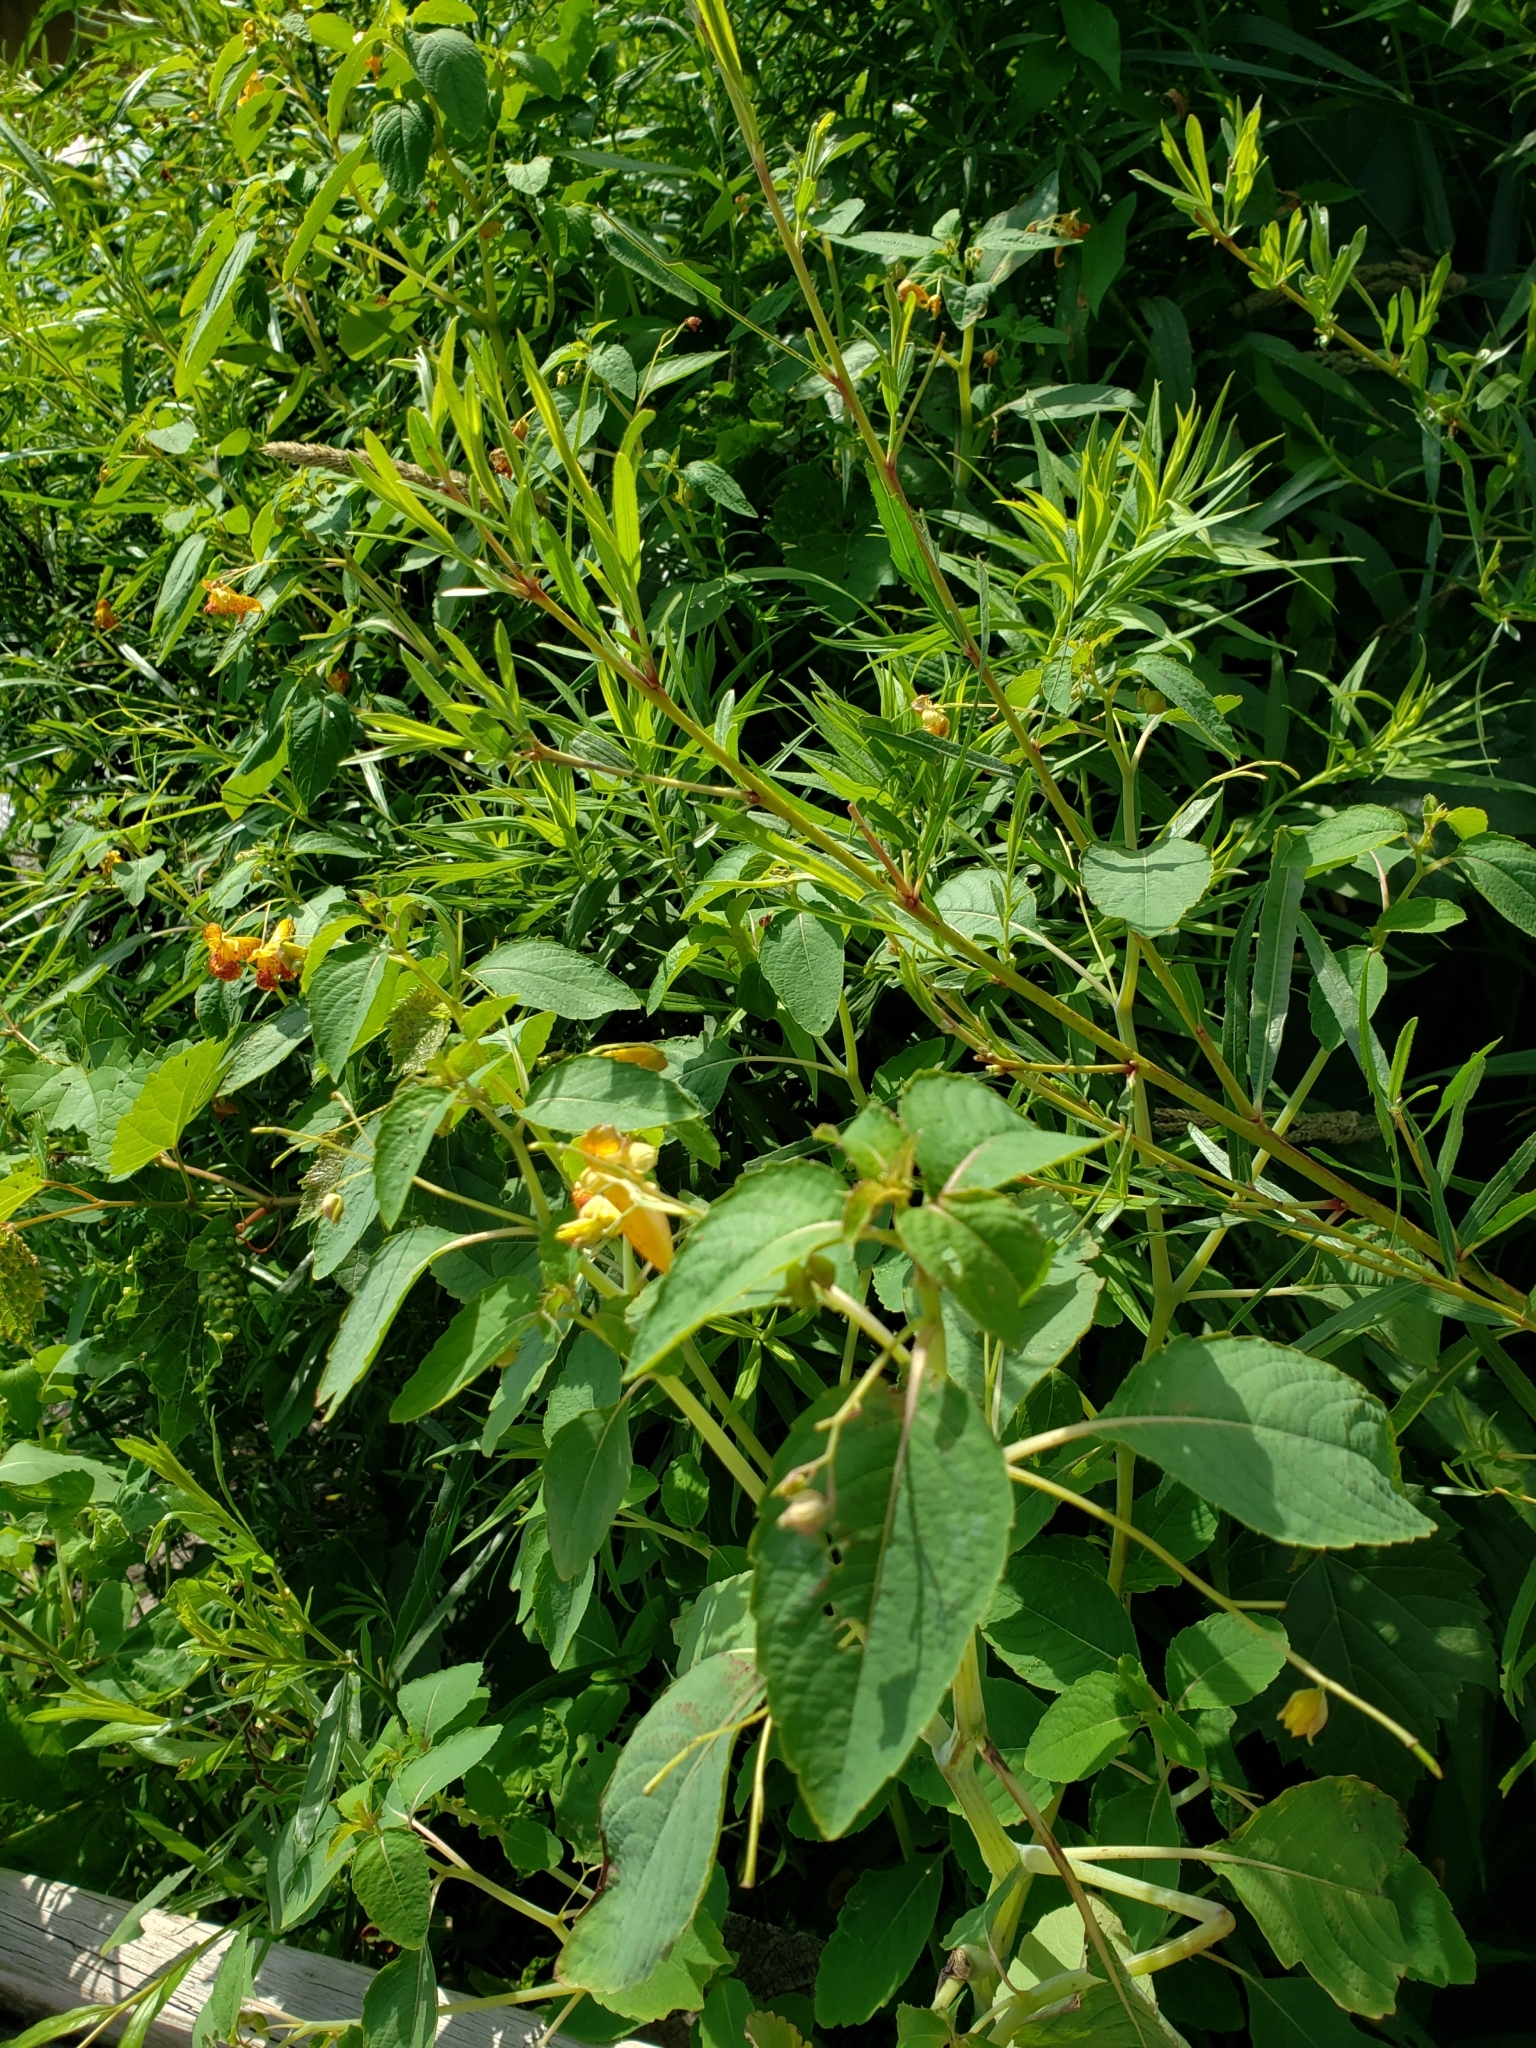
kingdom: Plantae
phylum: Tracheophyta
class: Magnoliopsida
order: Ericales
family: Balsaminaceae
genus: Impatiens
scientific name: Impatiens capensis
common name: Orange balsam
